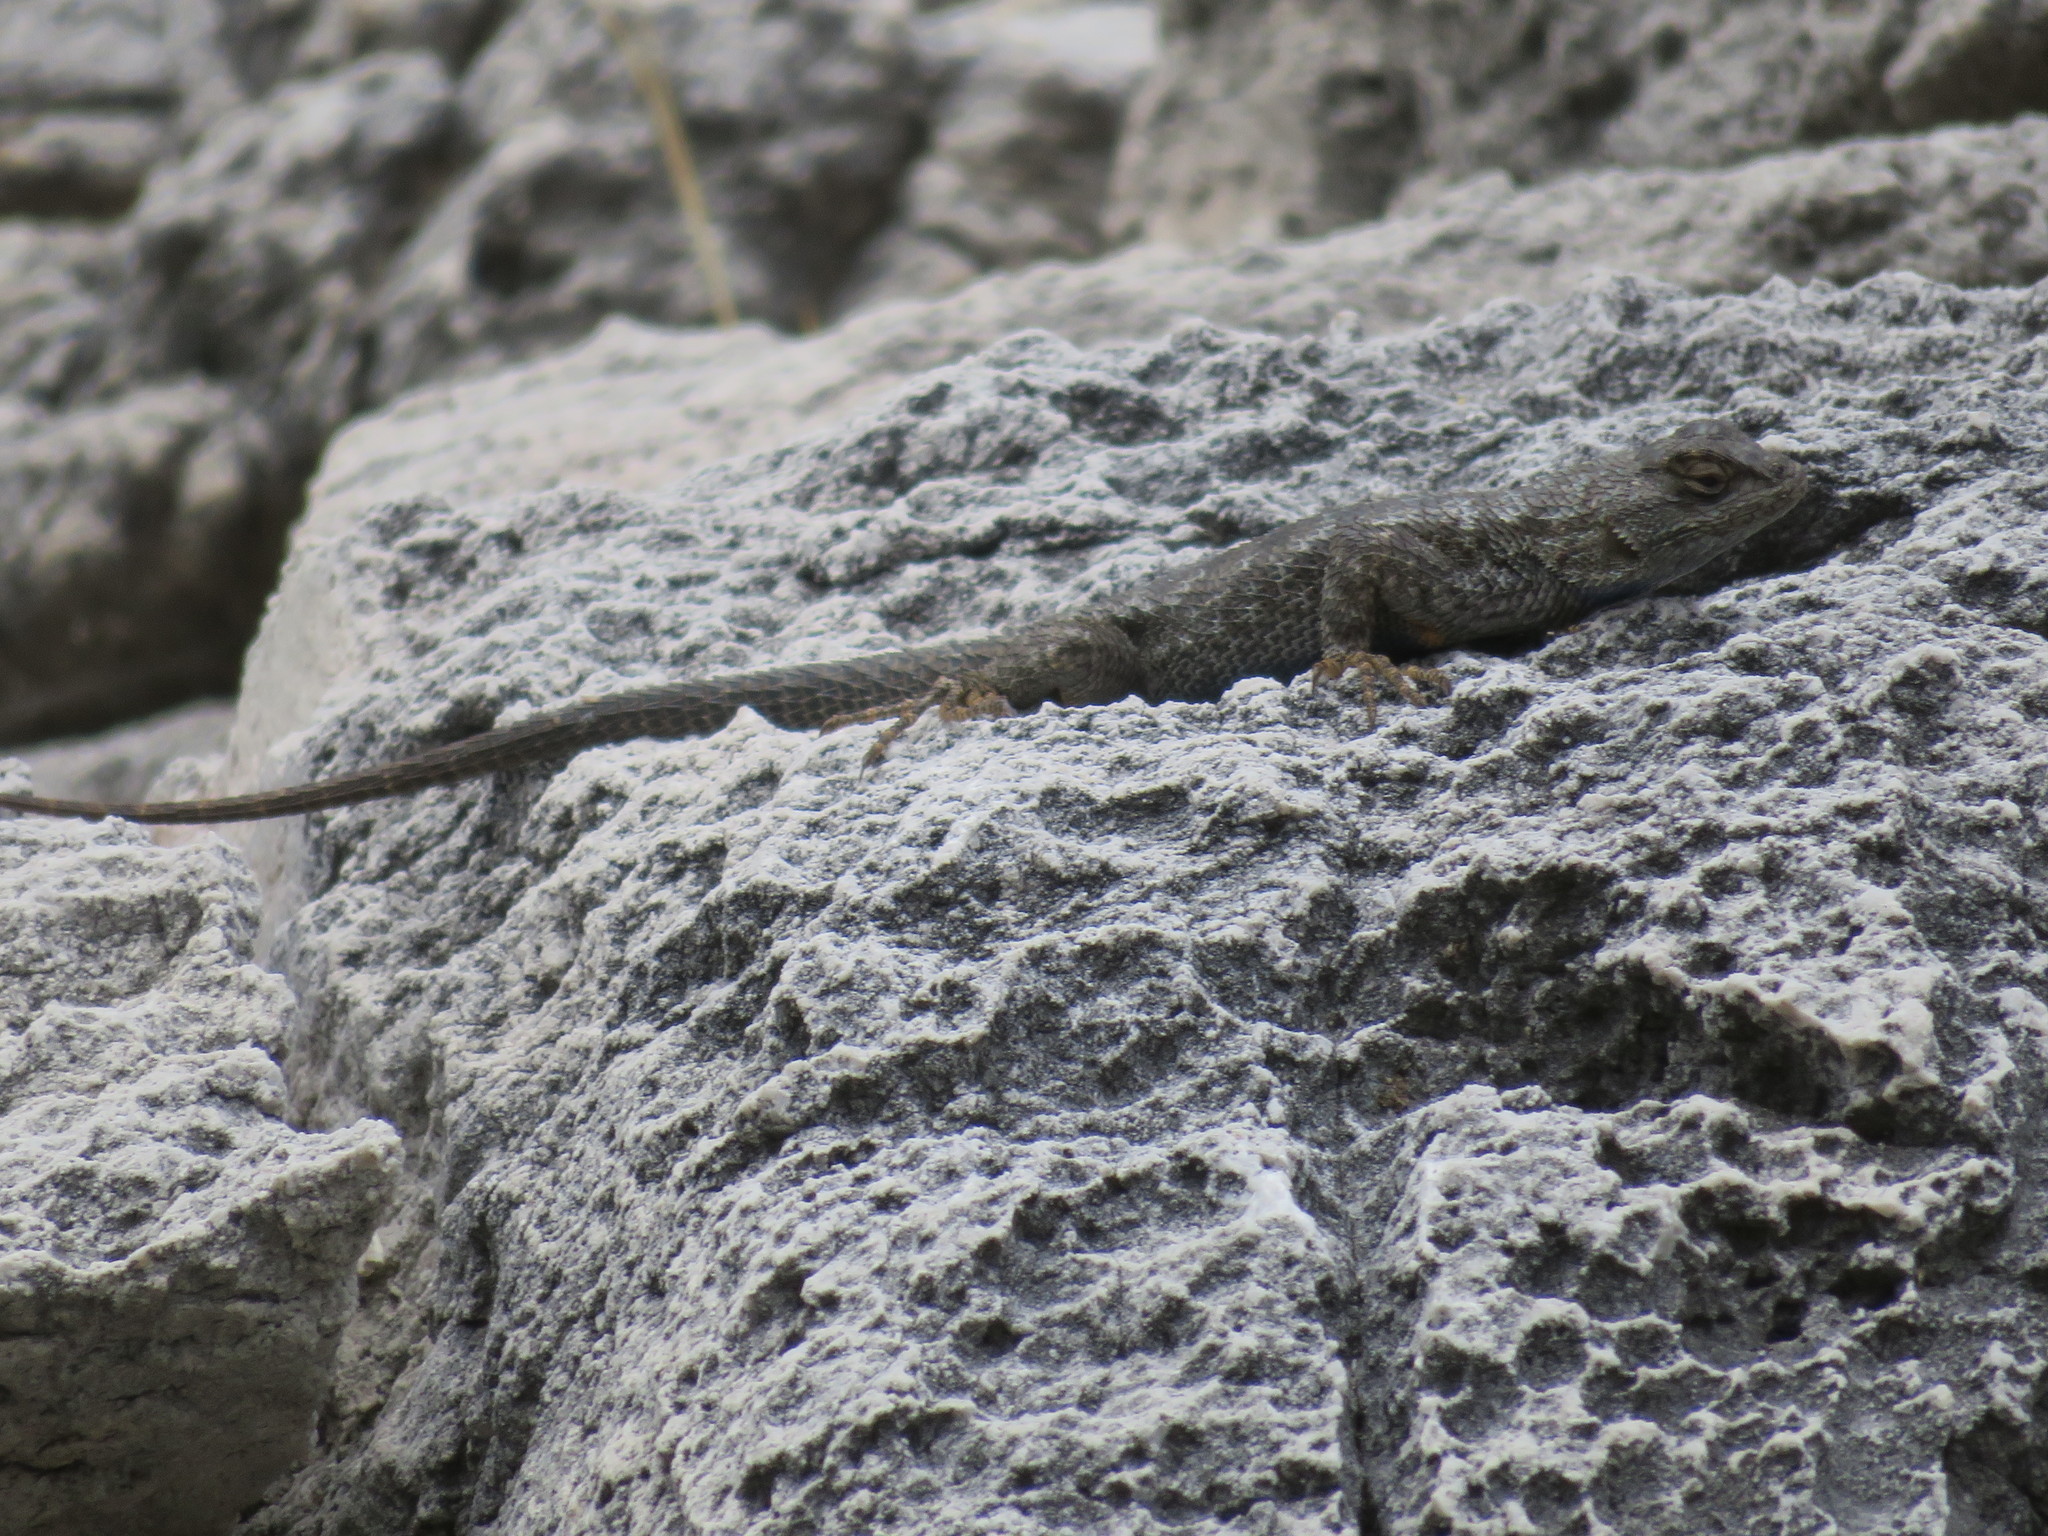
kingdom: Animalia
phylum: Chordata
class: Squamata
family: Phrynosomatidae
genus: Sceloporus
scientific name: Sceloporus occidentalis
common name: Western fence lizard
